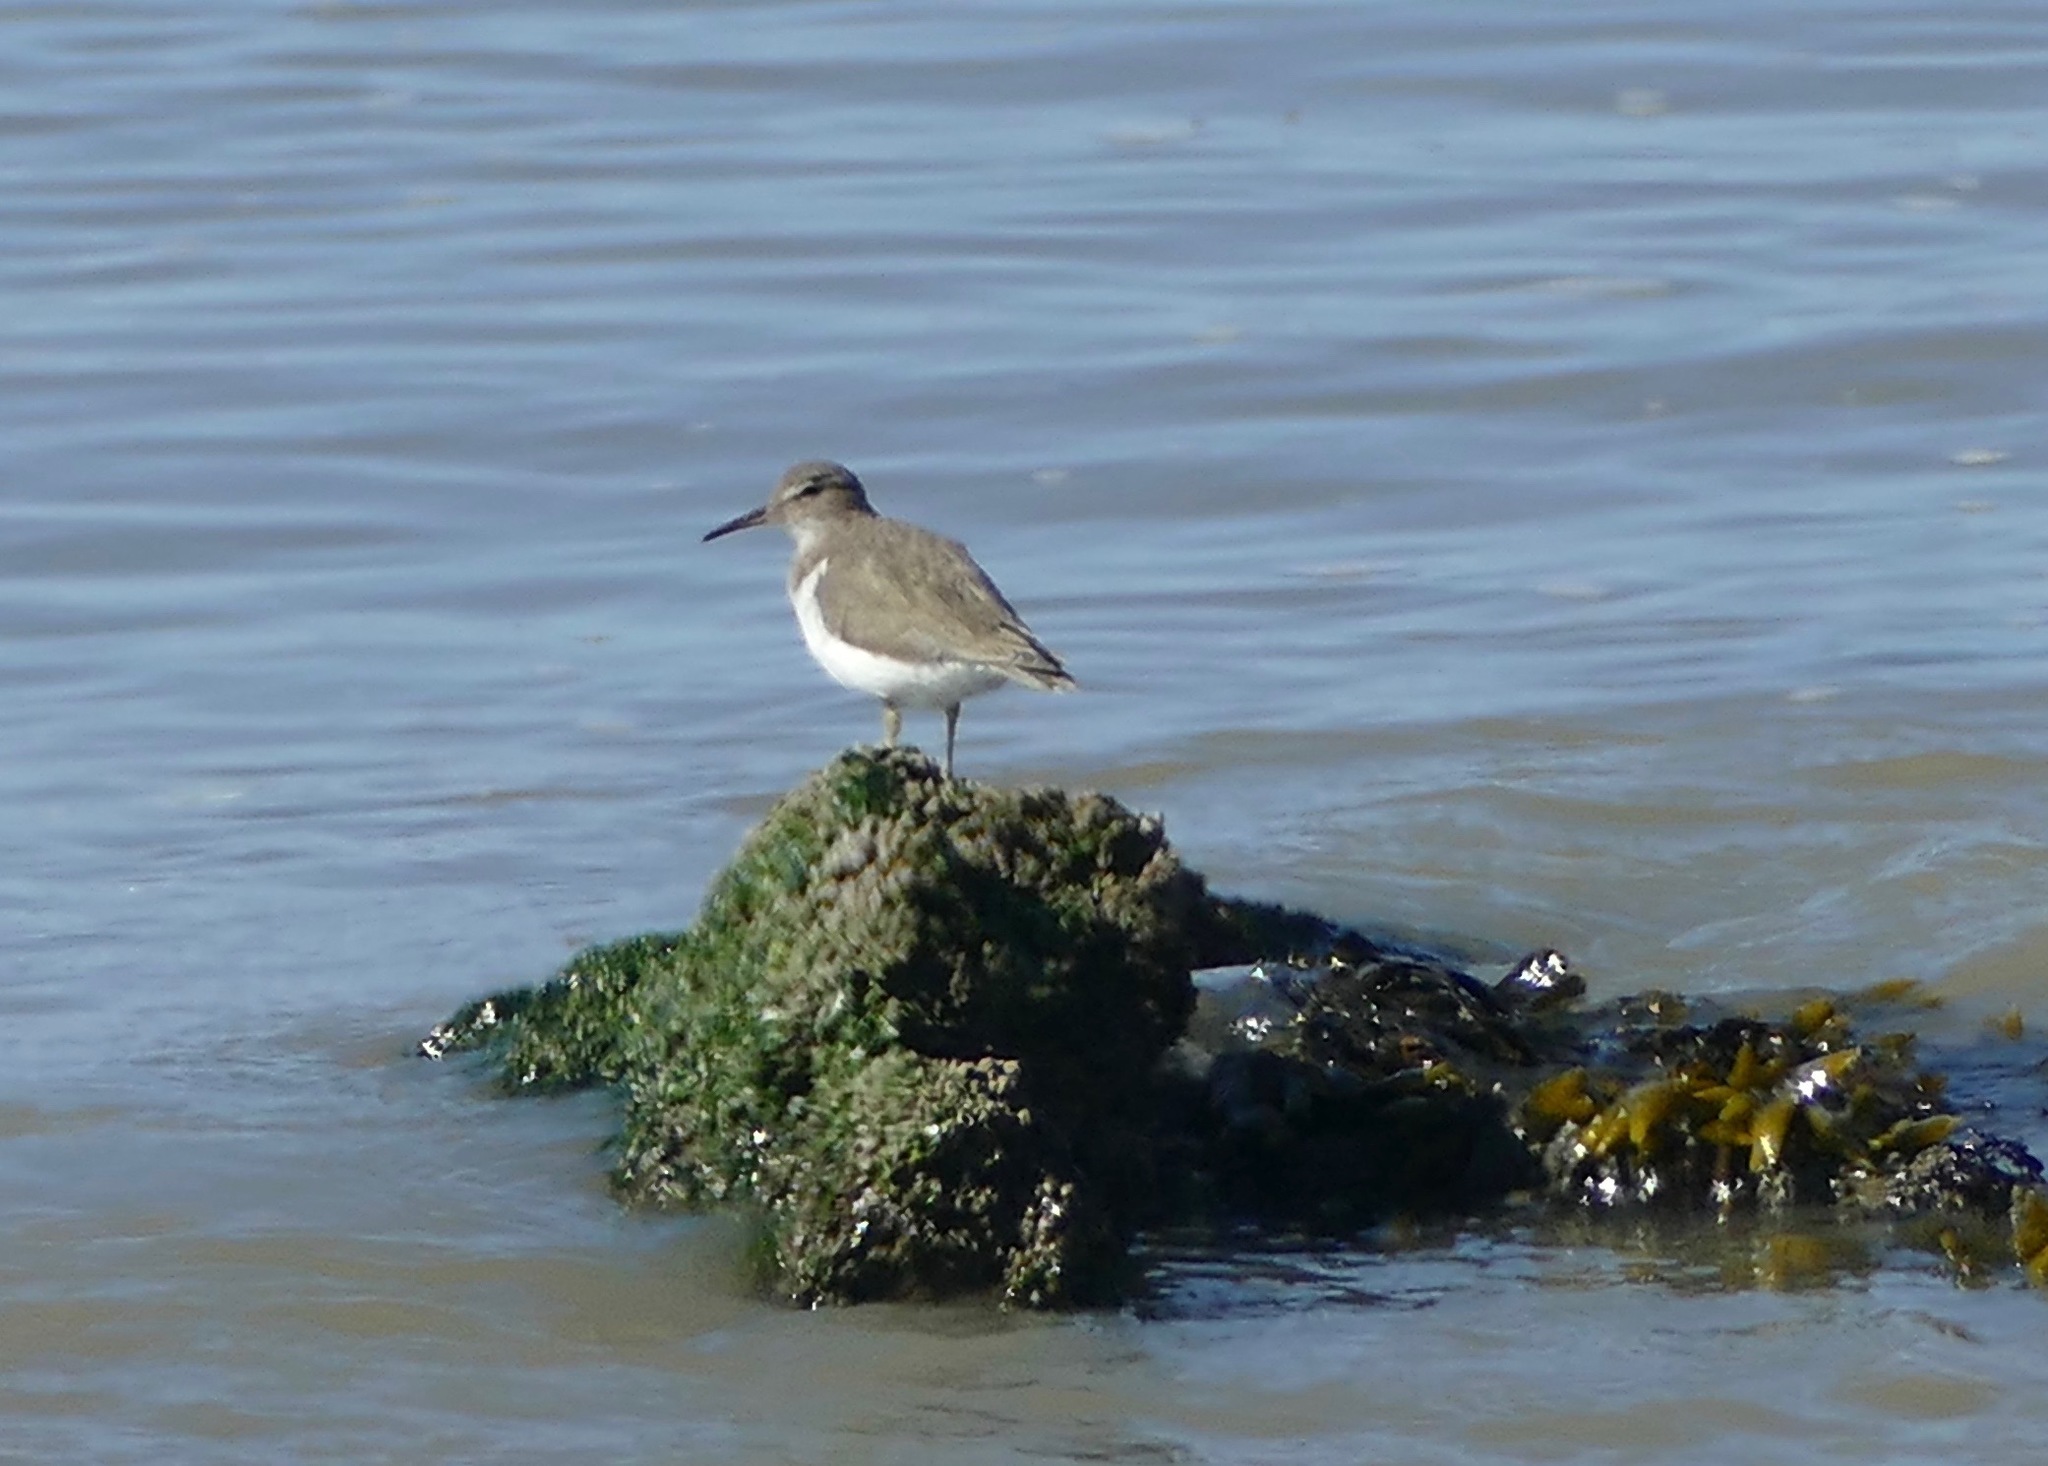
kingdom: Animalia
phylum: Chordata
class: Aves
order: Charadriiformes
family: Scolopacidae
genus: Actitis
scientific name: Actitis macularius
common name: Spotted sandpiper
